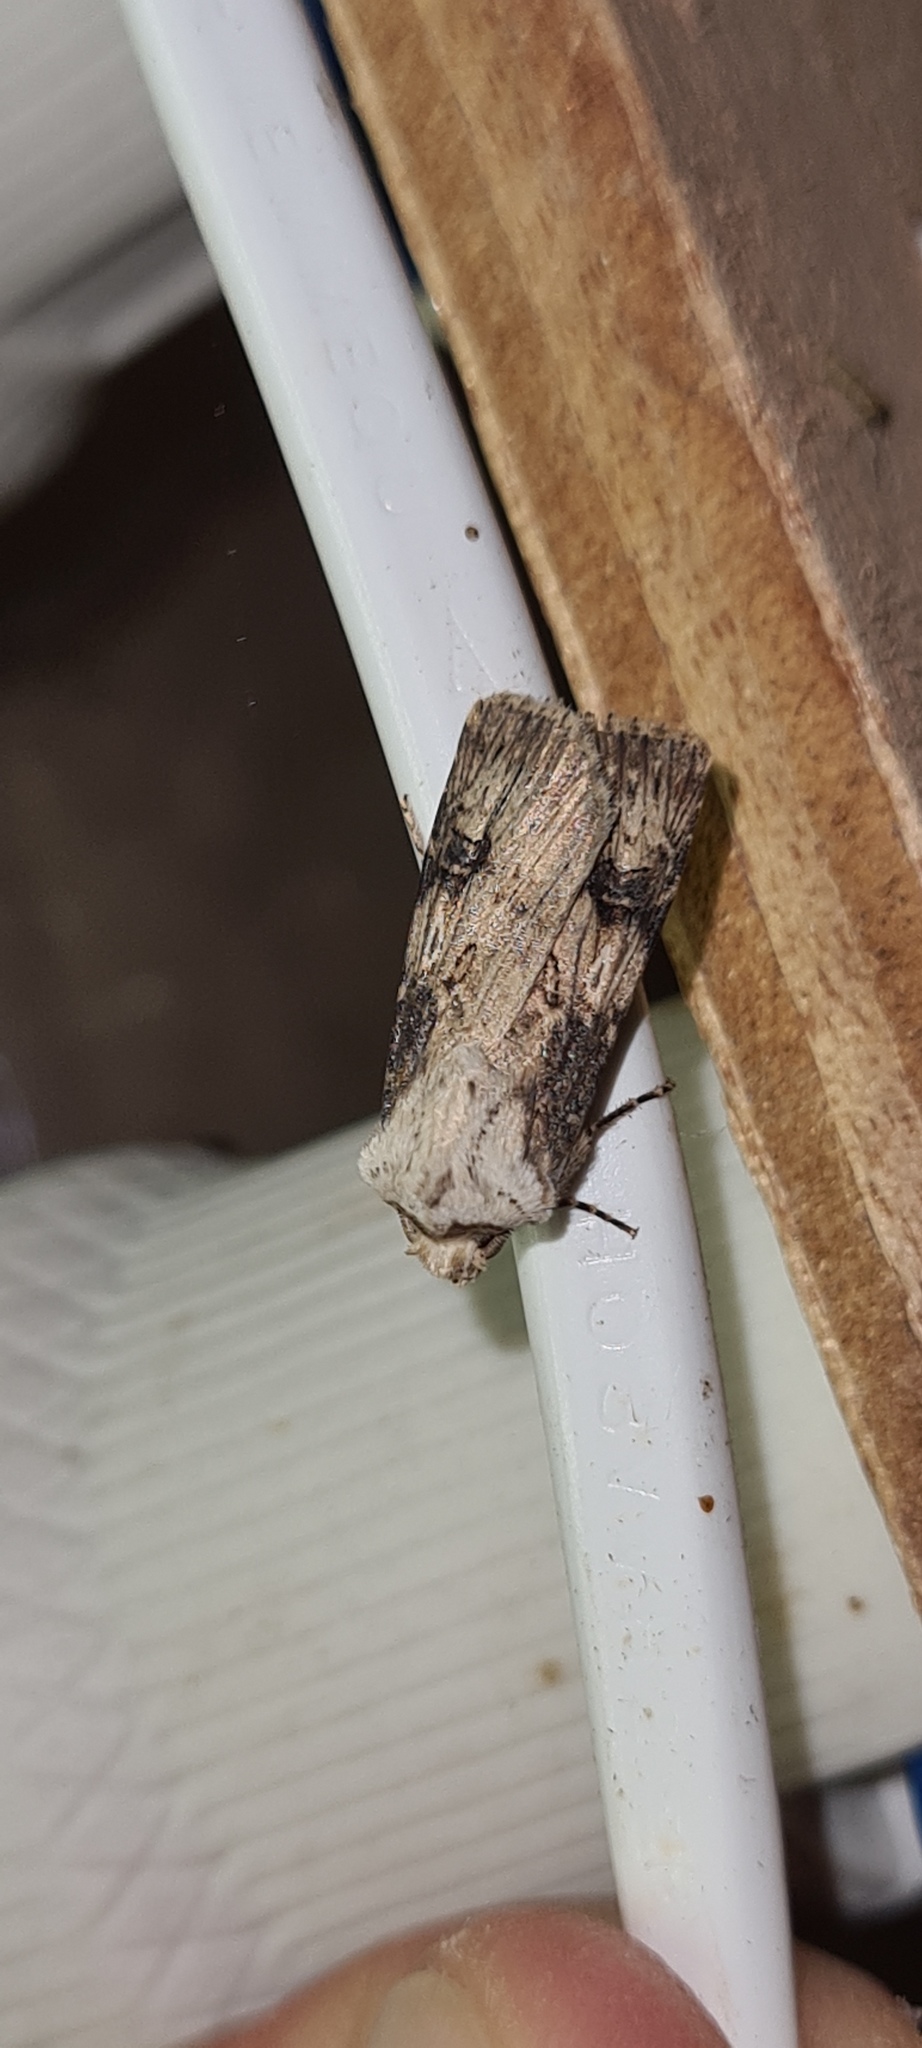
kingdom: Animalia
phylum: Arthropoda
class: Insecta
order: Lepidoptera
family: Noctuidae
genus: Agrotis
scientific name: Agrotis puta
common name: Shuttle-shaped dart
